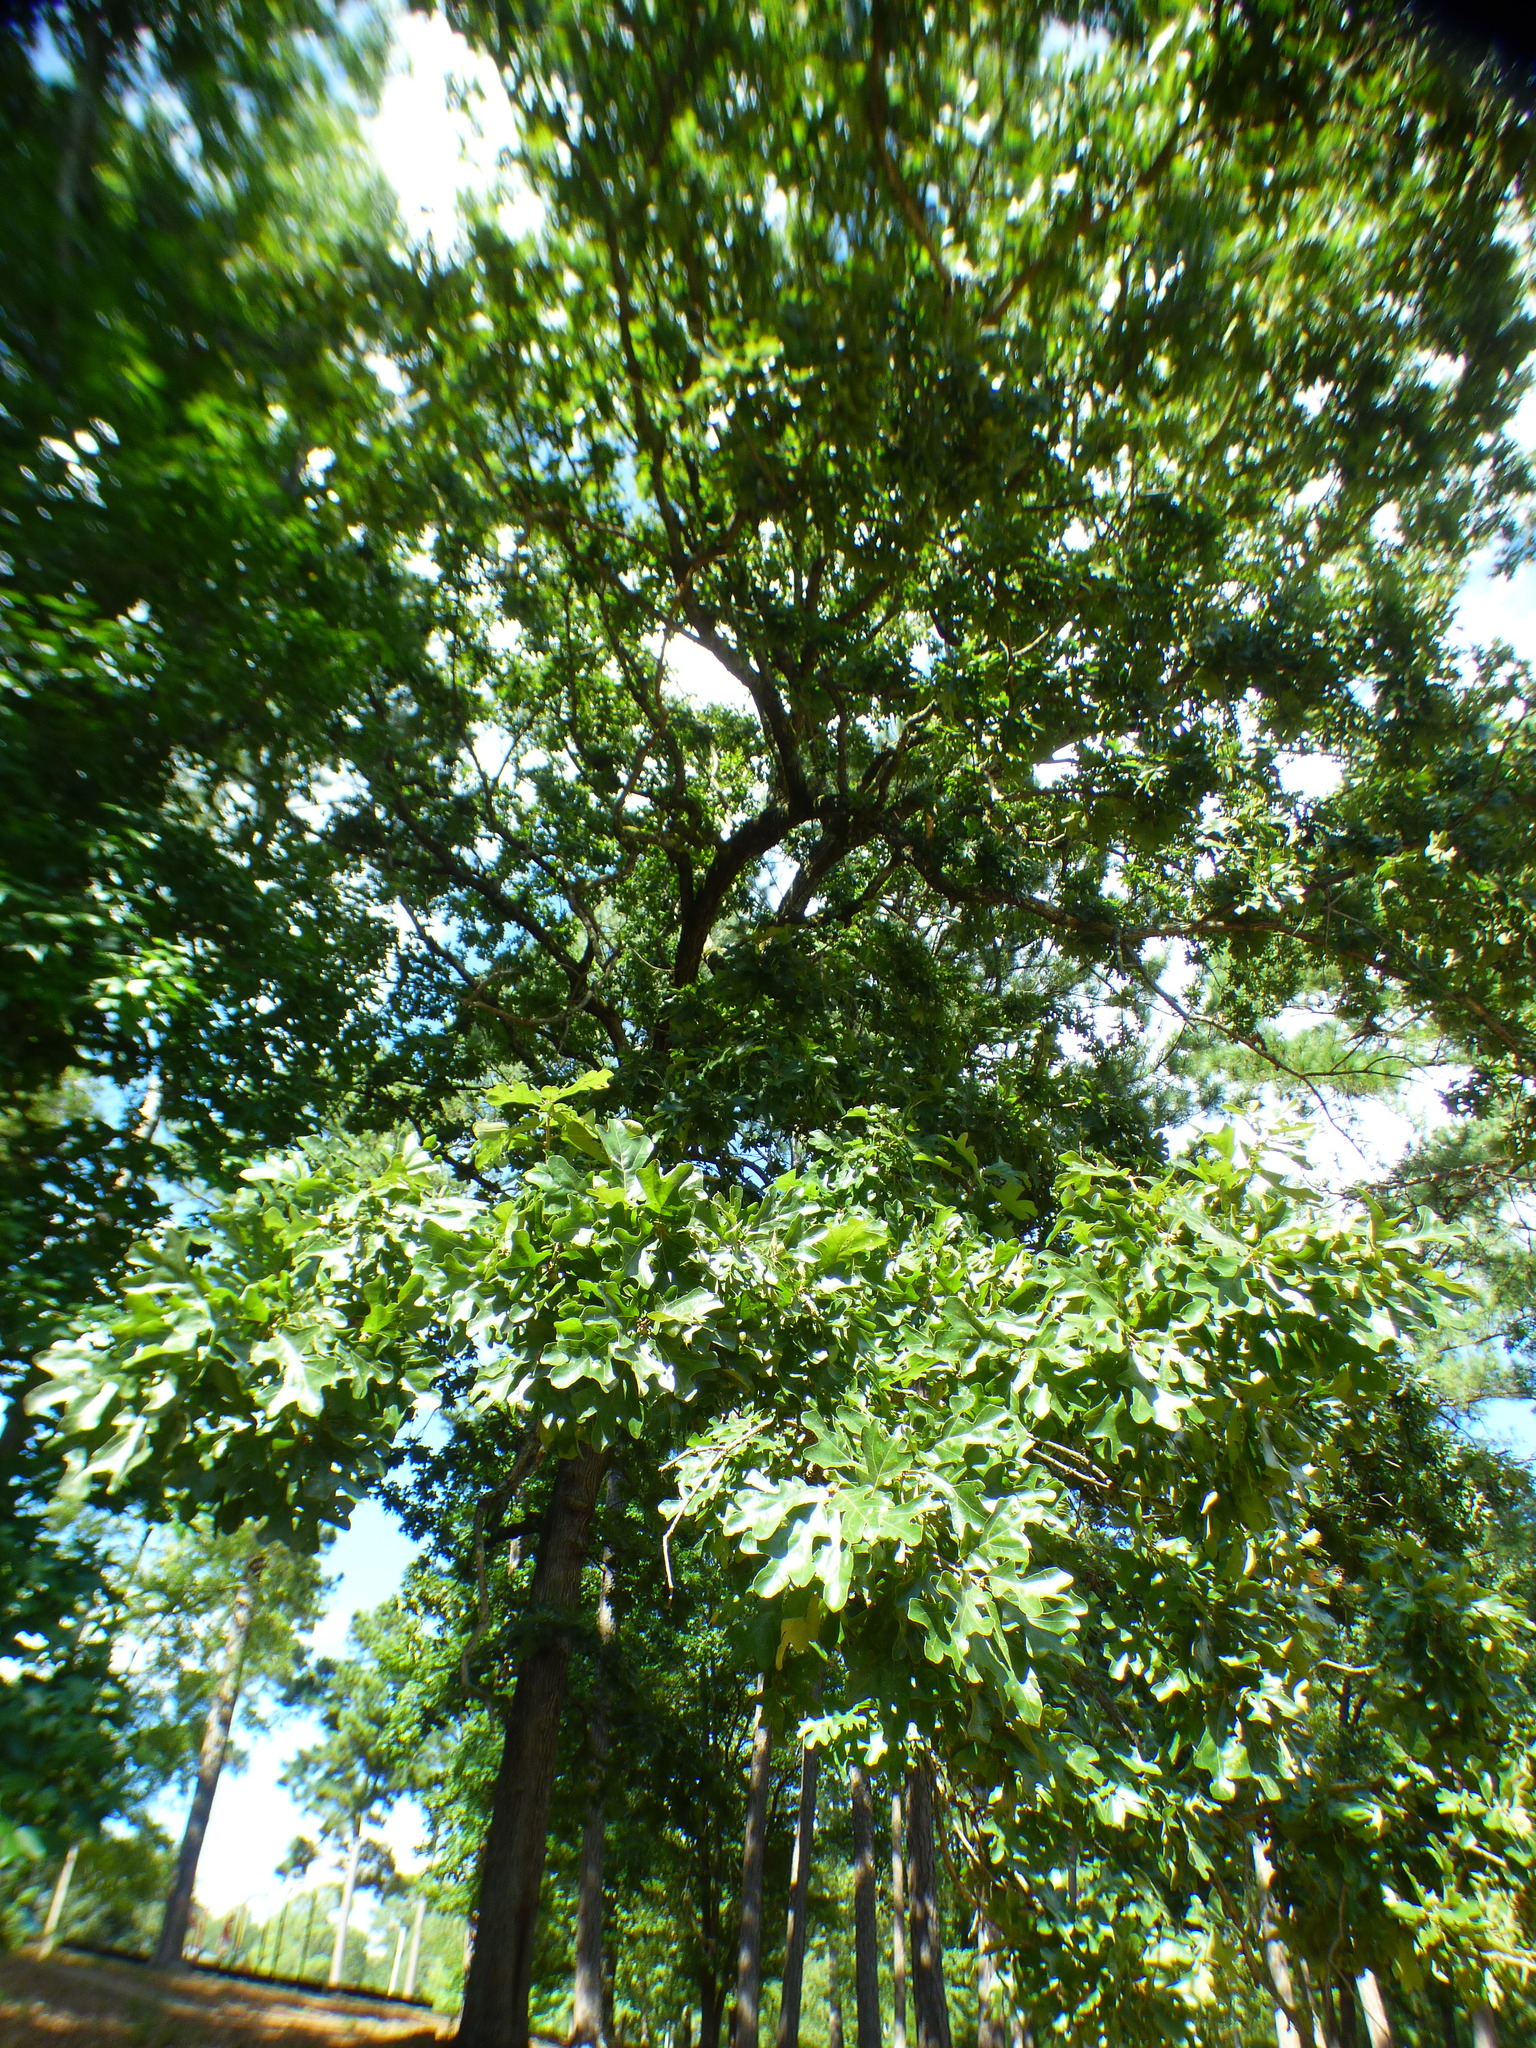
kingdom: Plantae
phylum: Tracheophyta
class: Magnoliopsida
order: Fagales
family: Fagaceae
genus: Quercus
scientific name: Quercus stellata
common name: Post oak
